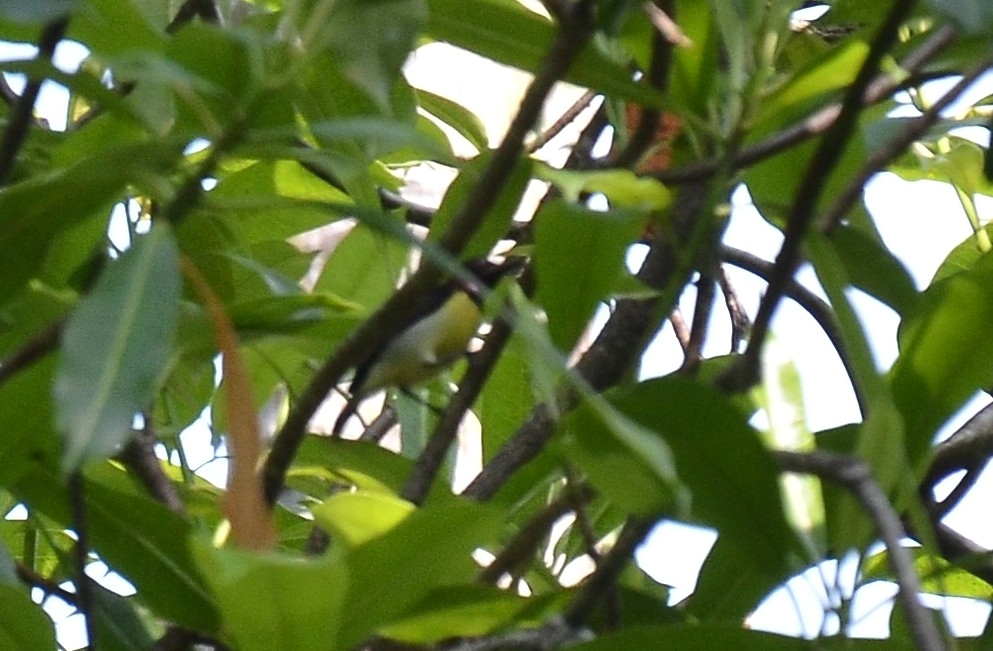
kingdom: Animalia
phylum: Chordata
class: Aves
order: Passeriformes
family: Nectariniidae
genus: Leptocoma
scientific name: Leptocoma zeylonica
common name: Purple-rumped sunbird
